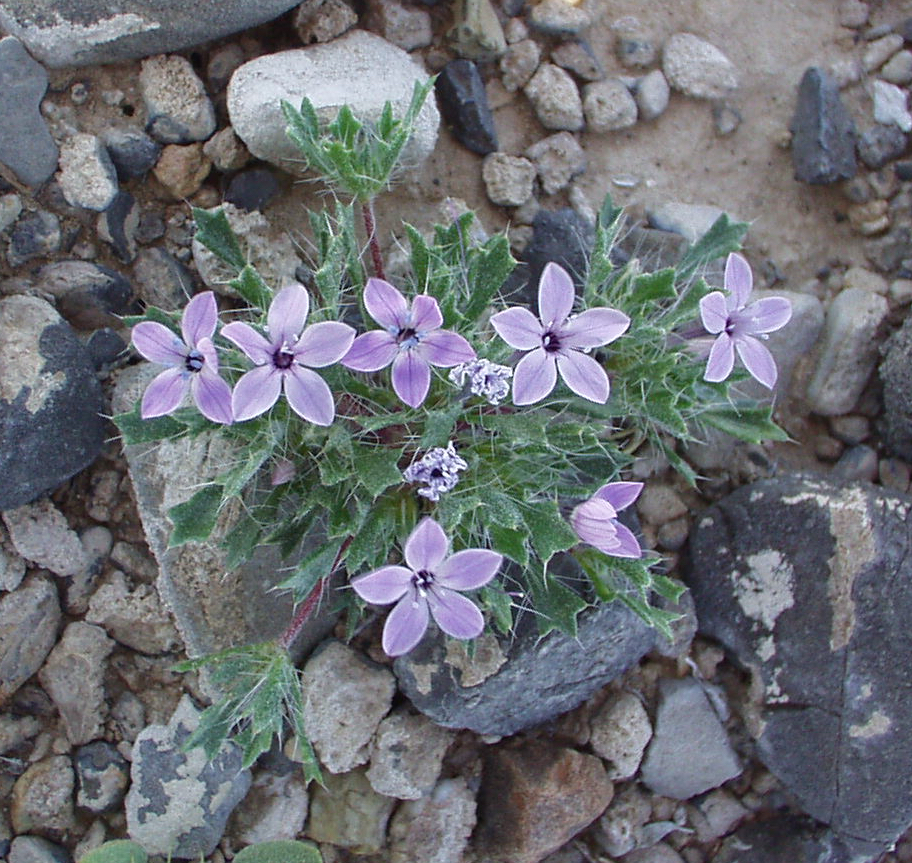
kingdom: Plantae
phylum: Tracheophyta
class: Magnoliopsida
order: Ericales
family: Polemoniaceae
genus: Langloisia
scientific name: Langloisia setosissima
